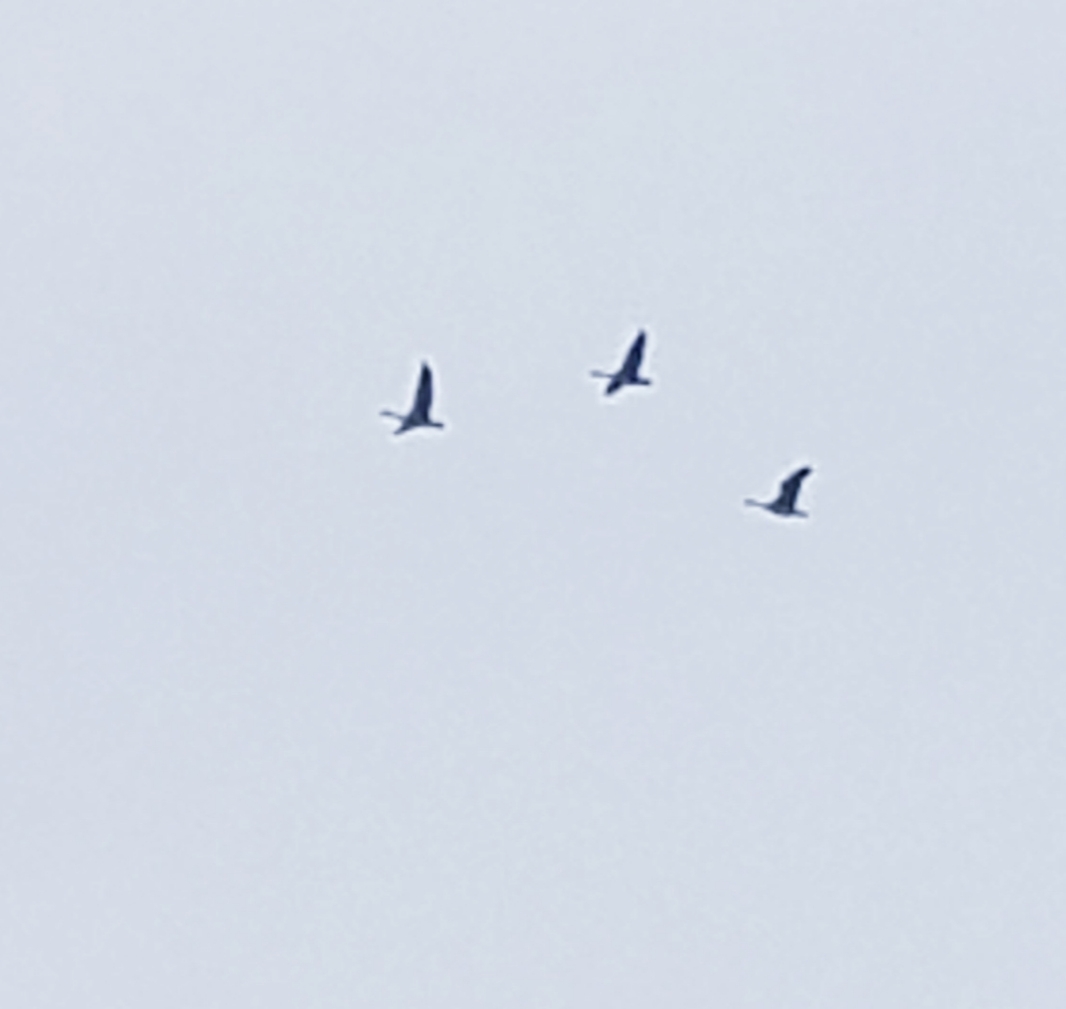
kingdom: Animalia
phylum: Chordata
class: Aves
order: Anseriformes
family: Anatidae
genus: Branta
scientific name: Branta canadensis
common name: Canada goose
